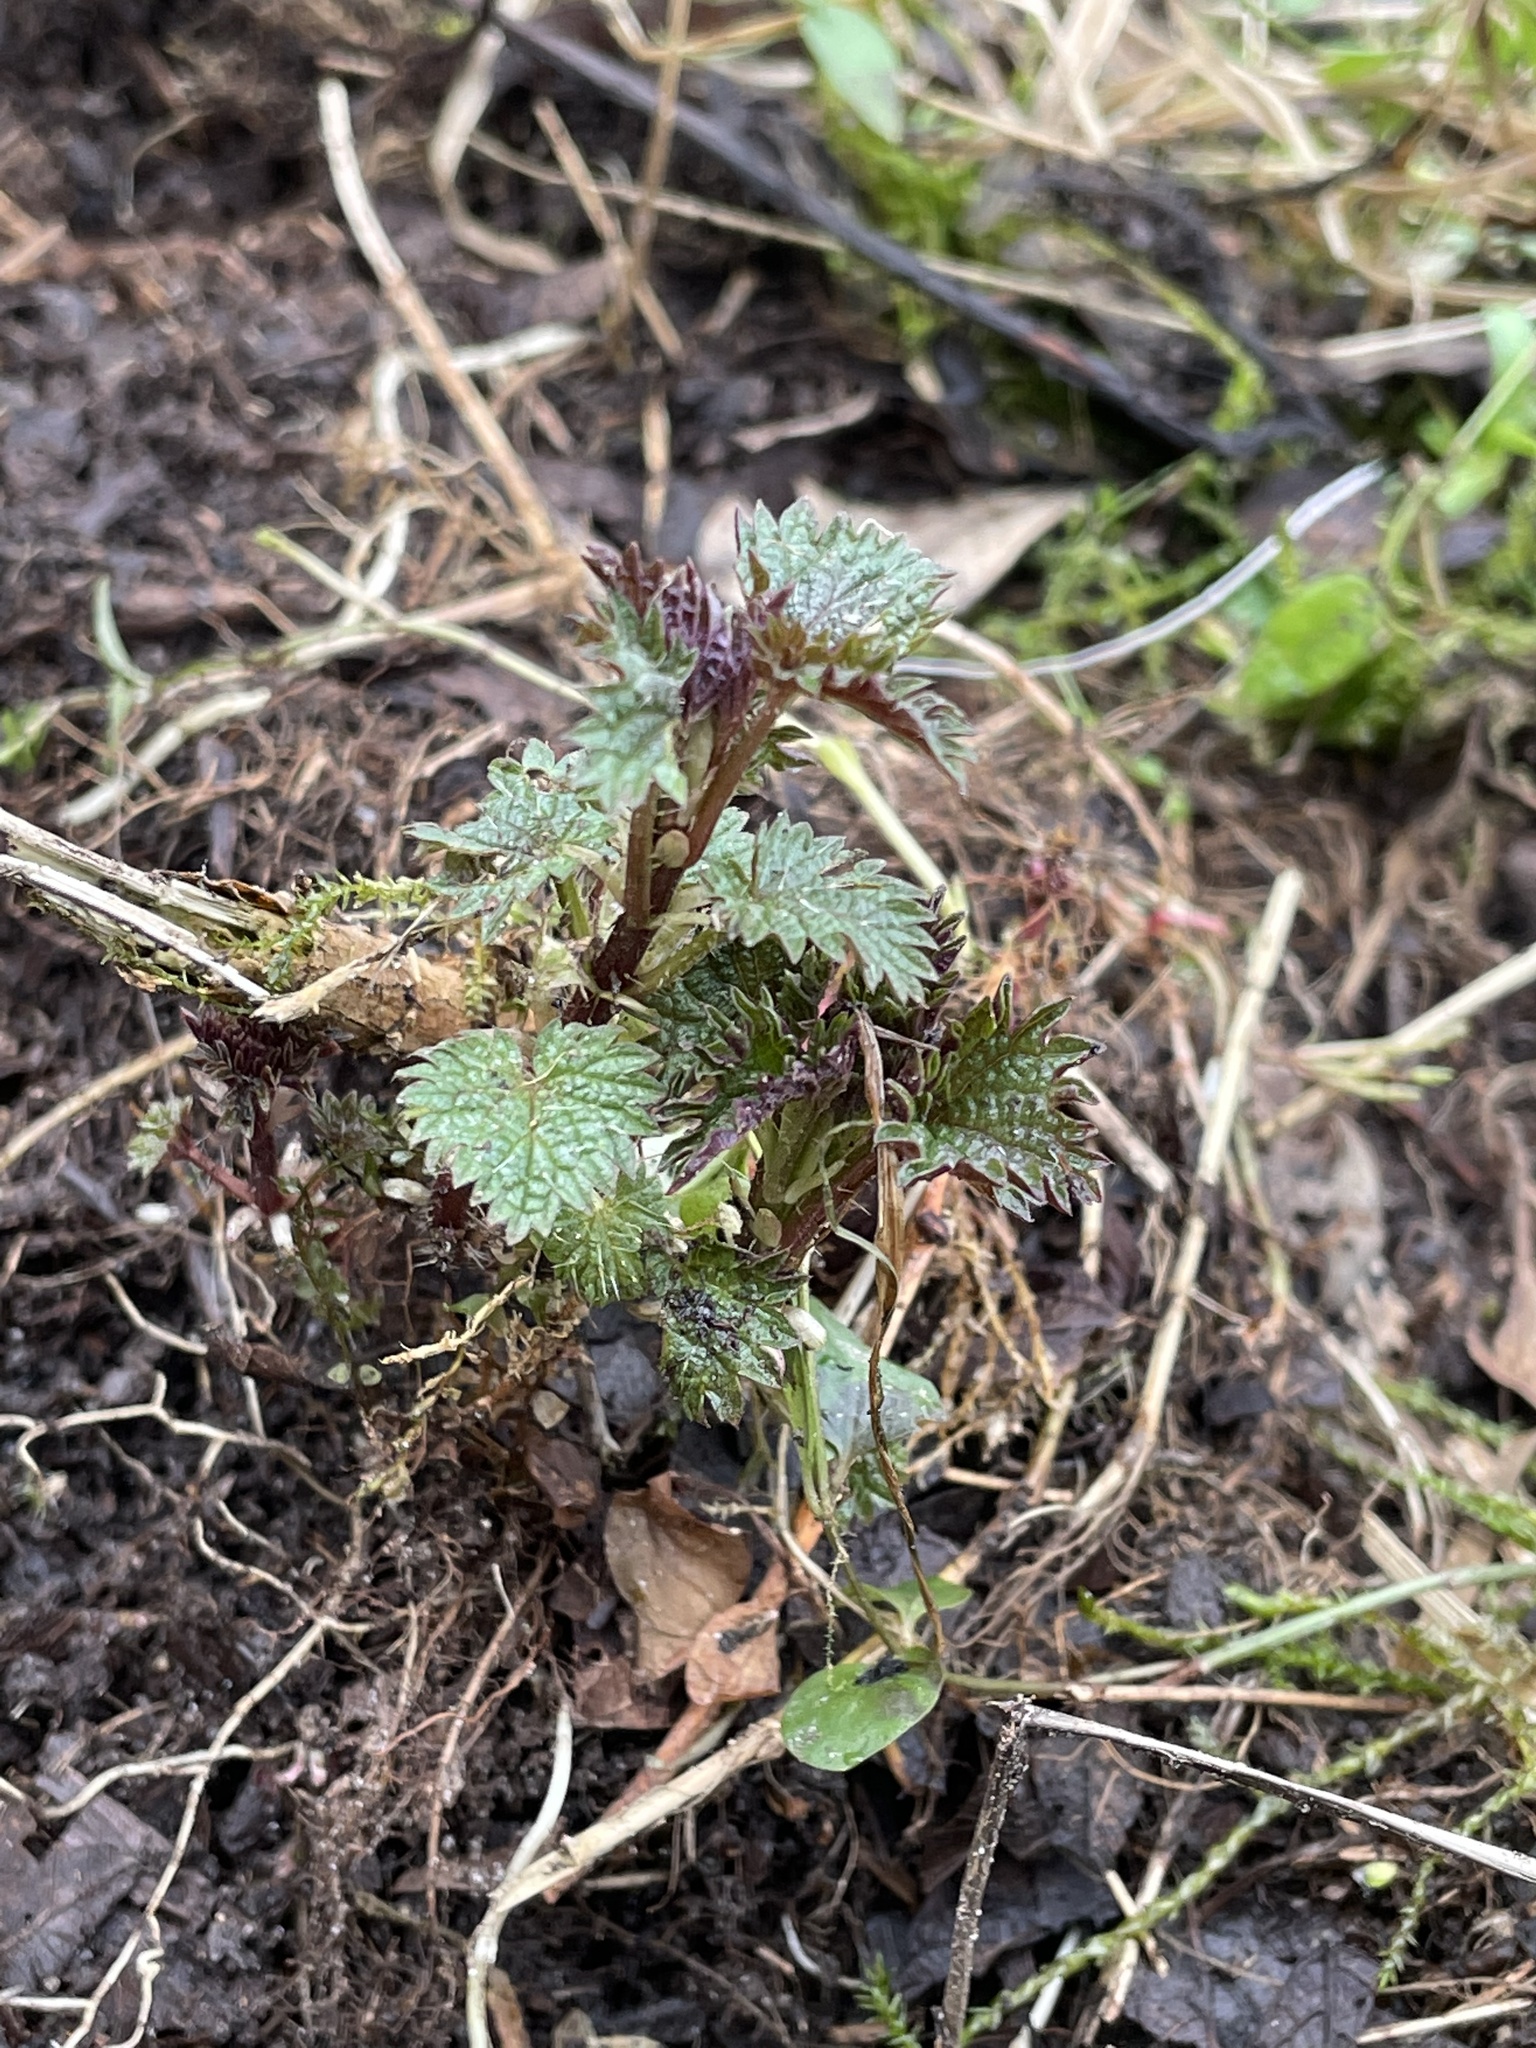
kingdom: Plantae
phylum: Tracheophyta
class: Magnoliopsida
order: Rosales
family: Urticaceae
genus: Urtica
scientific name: Urtica dioica
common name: Common nettle
